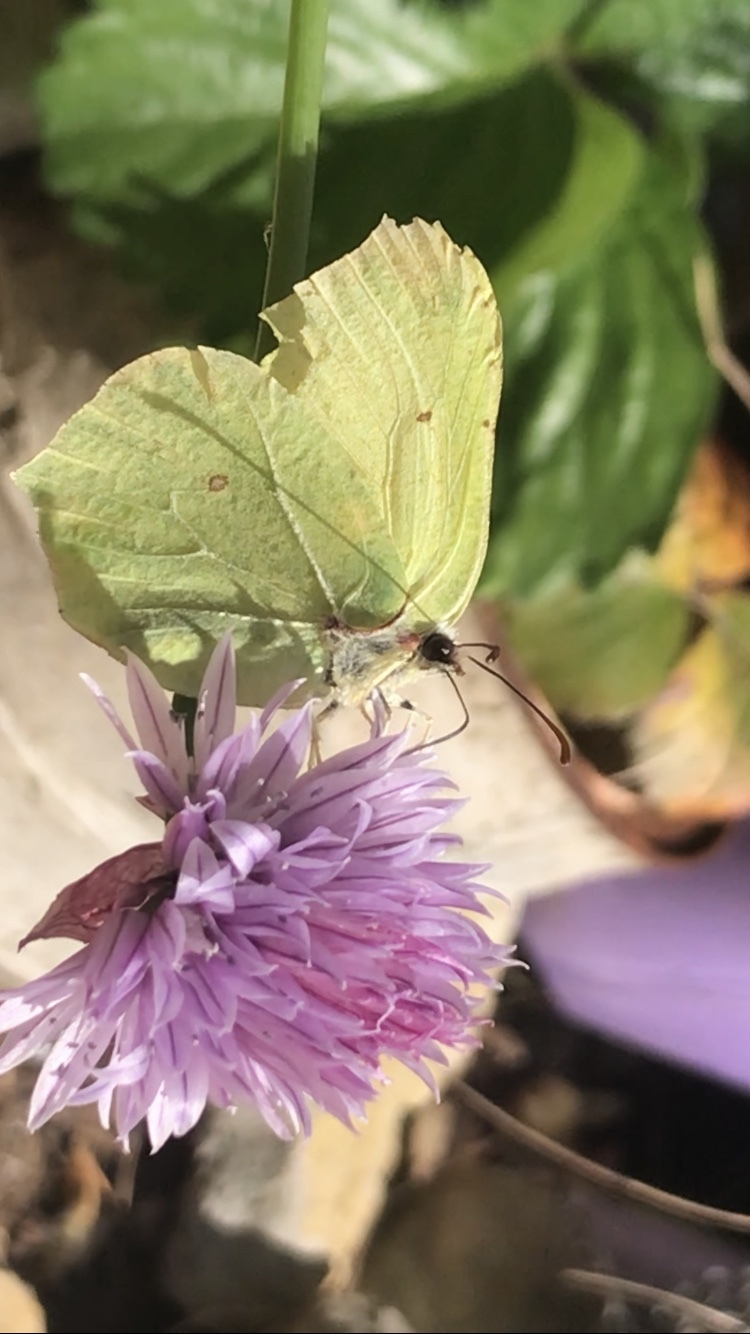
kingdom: Animalia
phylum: Arthropoda
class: Insecta
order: Lepidoptera
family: Pieridae
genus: Gonepteryx
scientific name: Gonepteryx rhamni
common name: Brimstone
